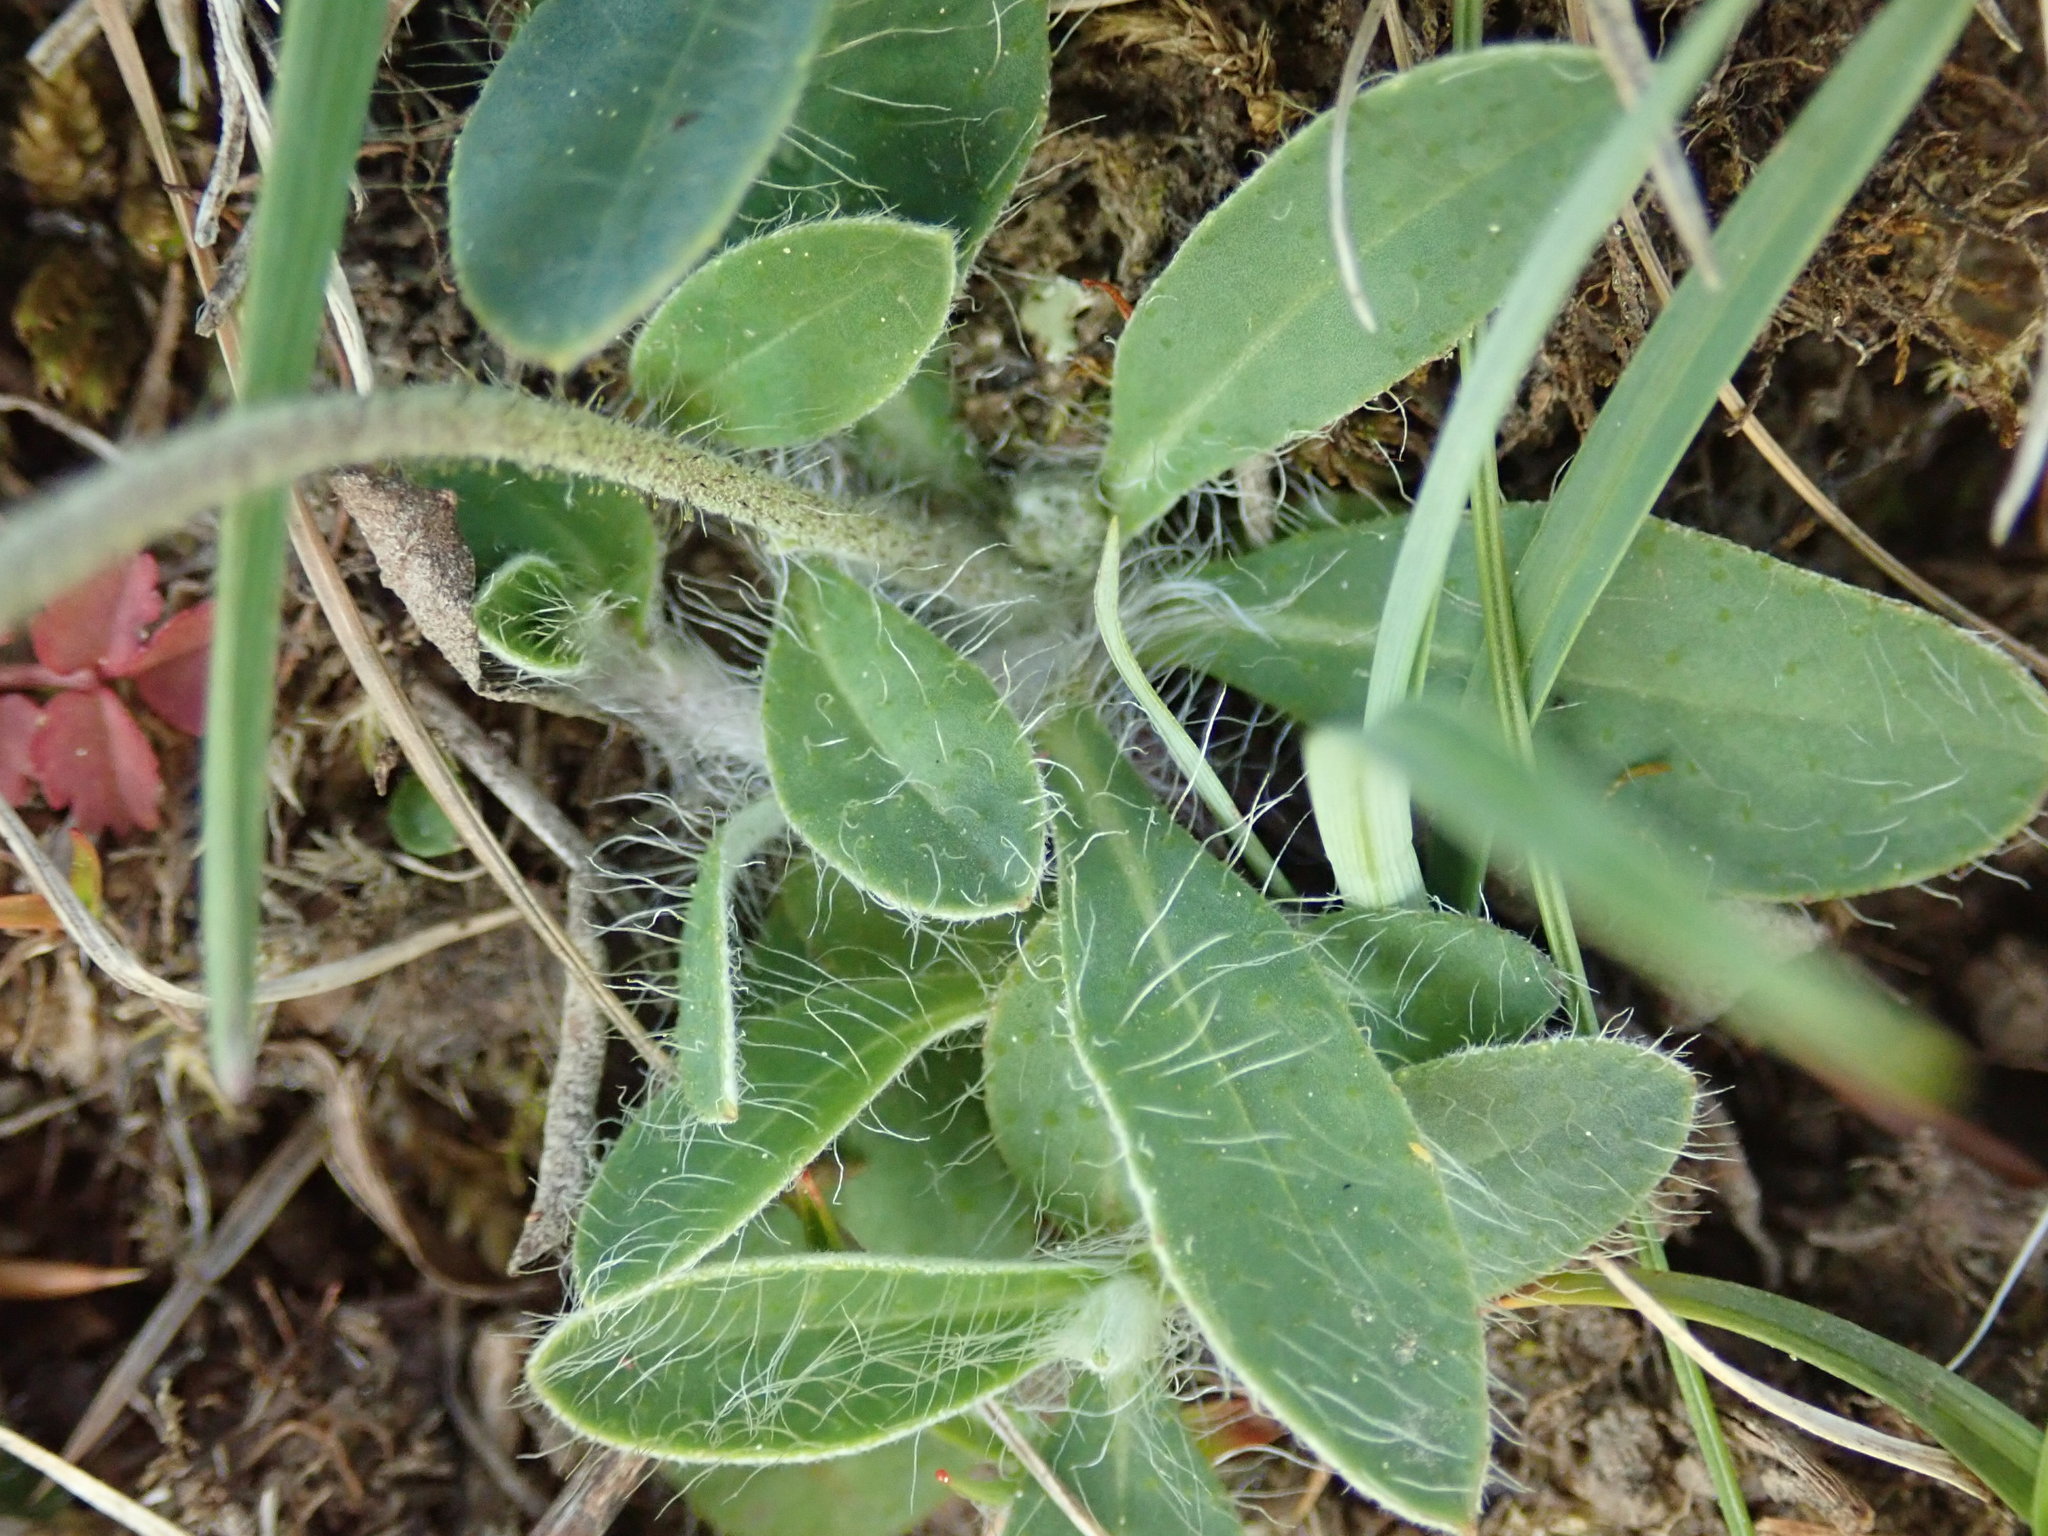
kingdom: Plantae
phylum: Tracheophyta
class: Magnoliopsida
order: Asterales
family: Asteraceae
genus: Pilosella
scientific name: Pilosella officinarum
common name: Mouse-ear hawkweed
